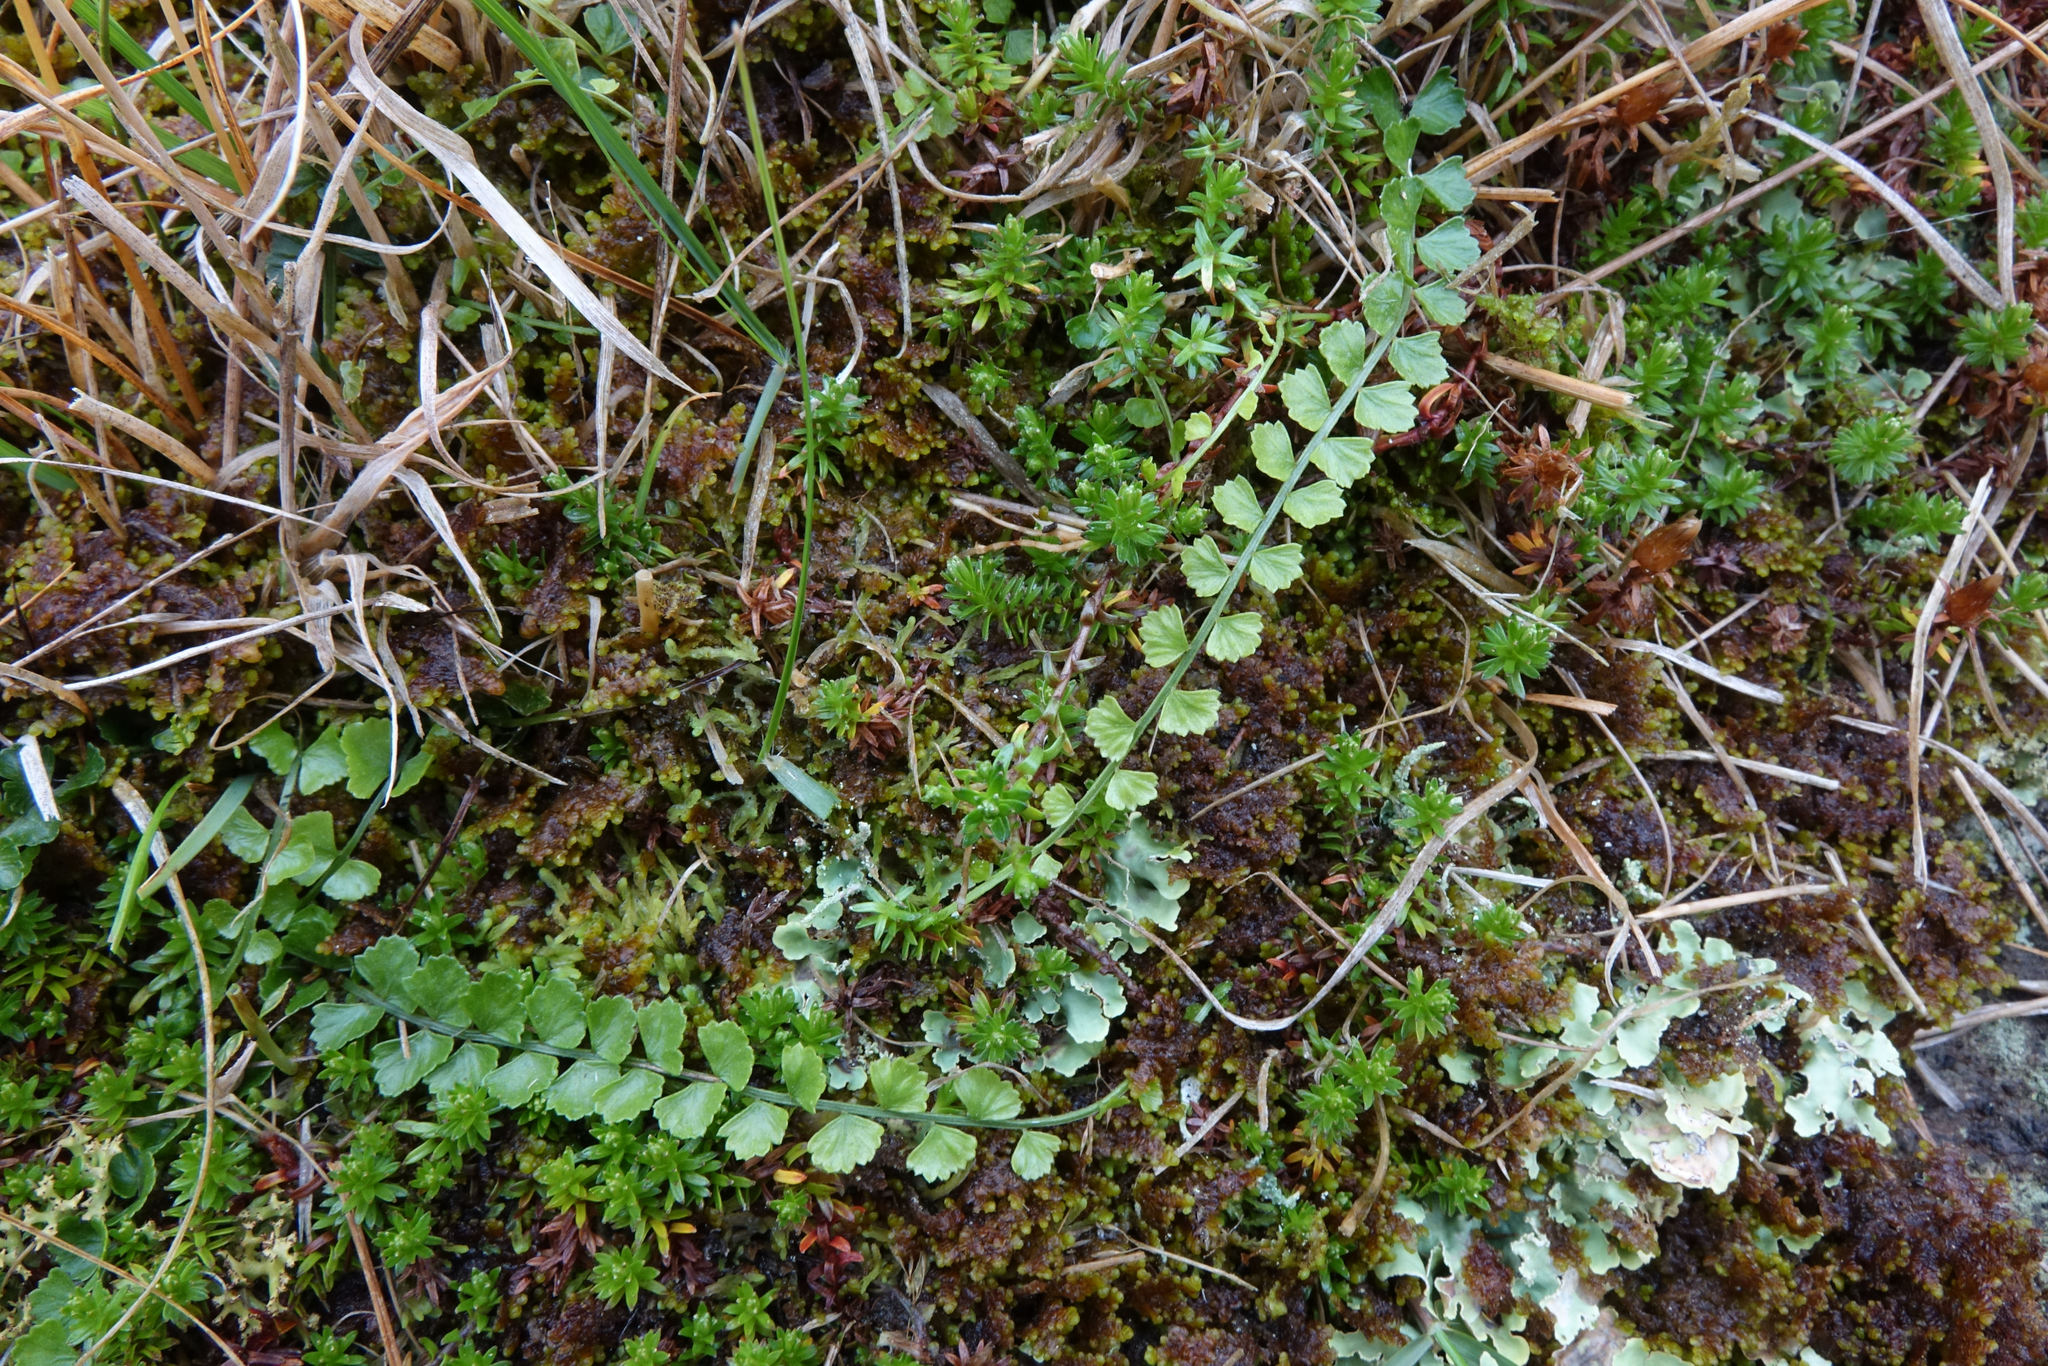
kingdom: Plantae
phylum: Tracheophyta
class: Polypodiopsida
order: Polypodiales
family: Aspleniaceae
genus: Asplenium
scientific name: Asplenium flabellifolium
